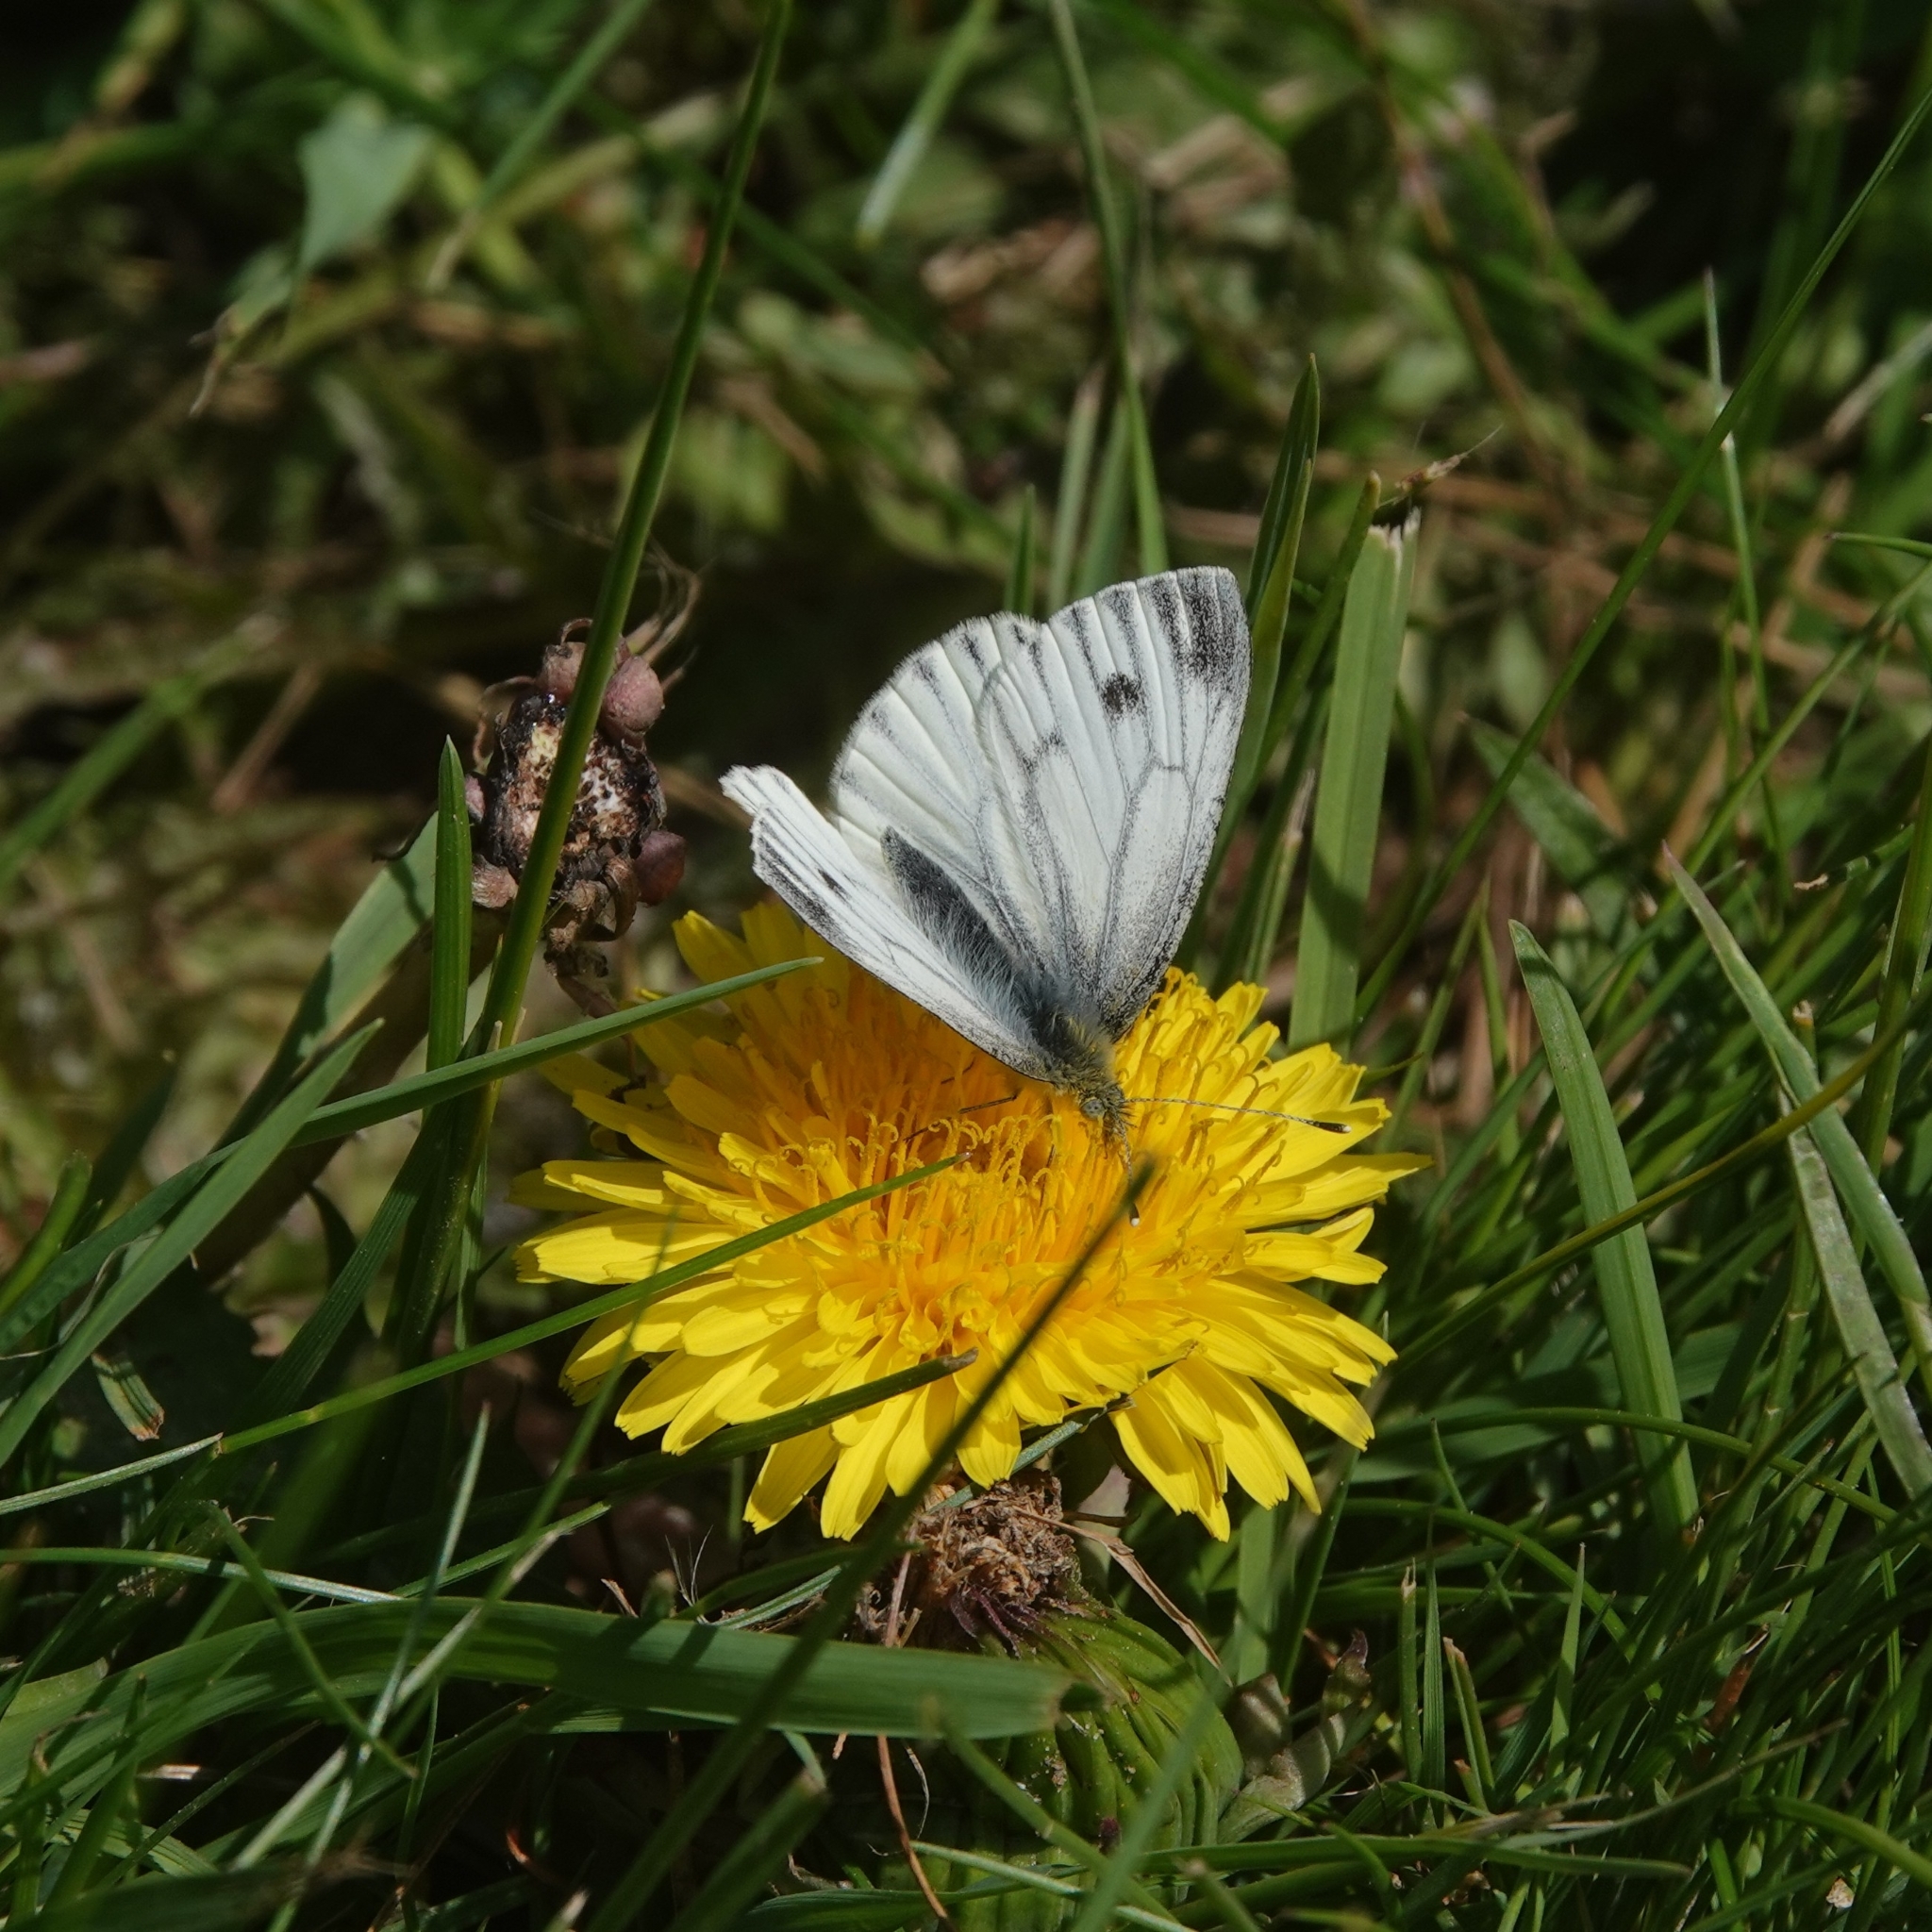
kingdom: Animalia
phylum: Arthropoda
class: Insecta
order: Lepidoptera
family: Pieridae
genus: Pieris
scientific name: Pieris napi
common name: Green-veined white
